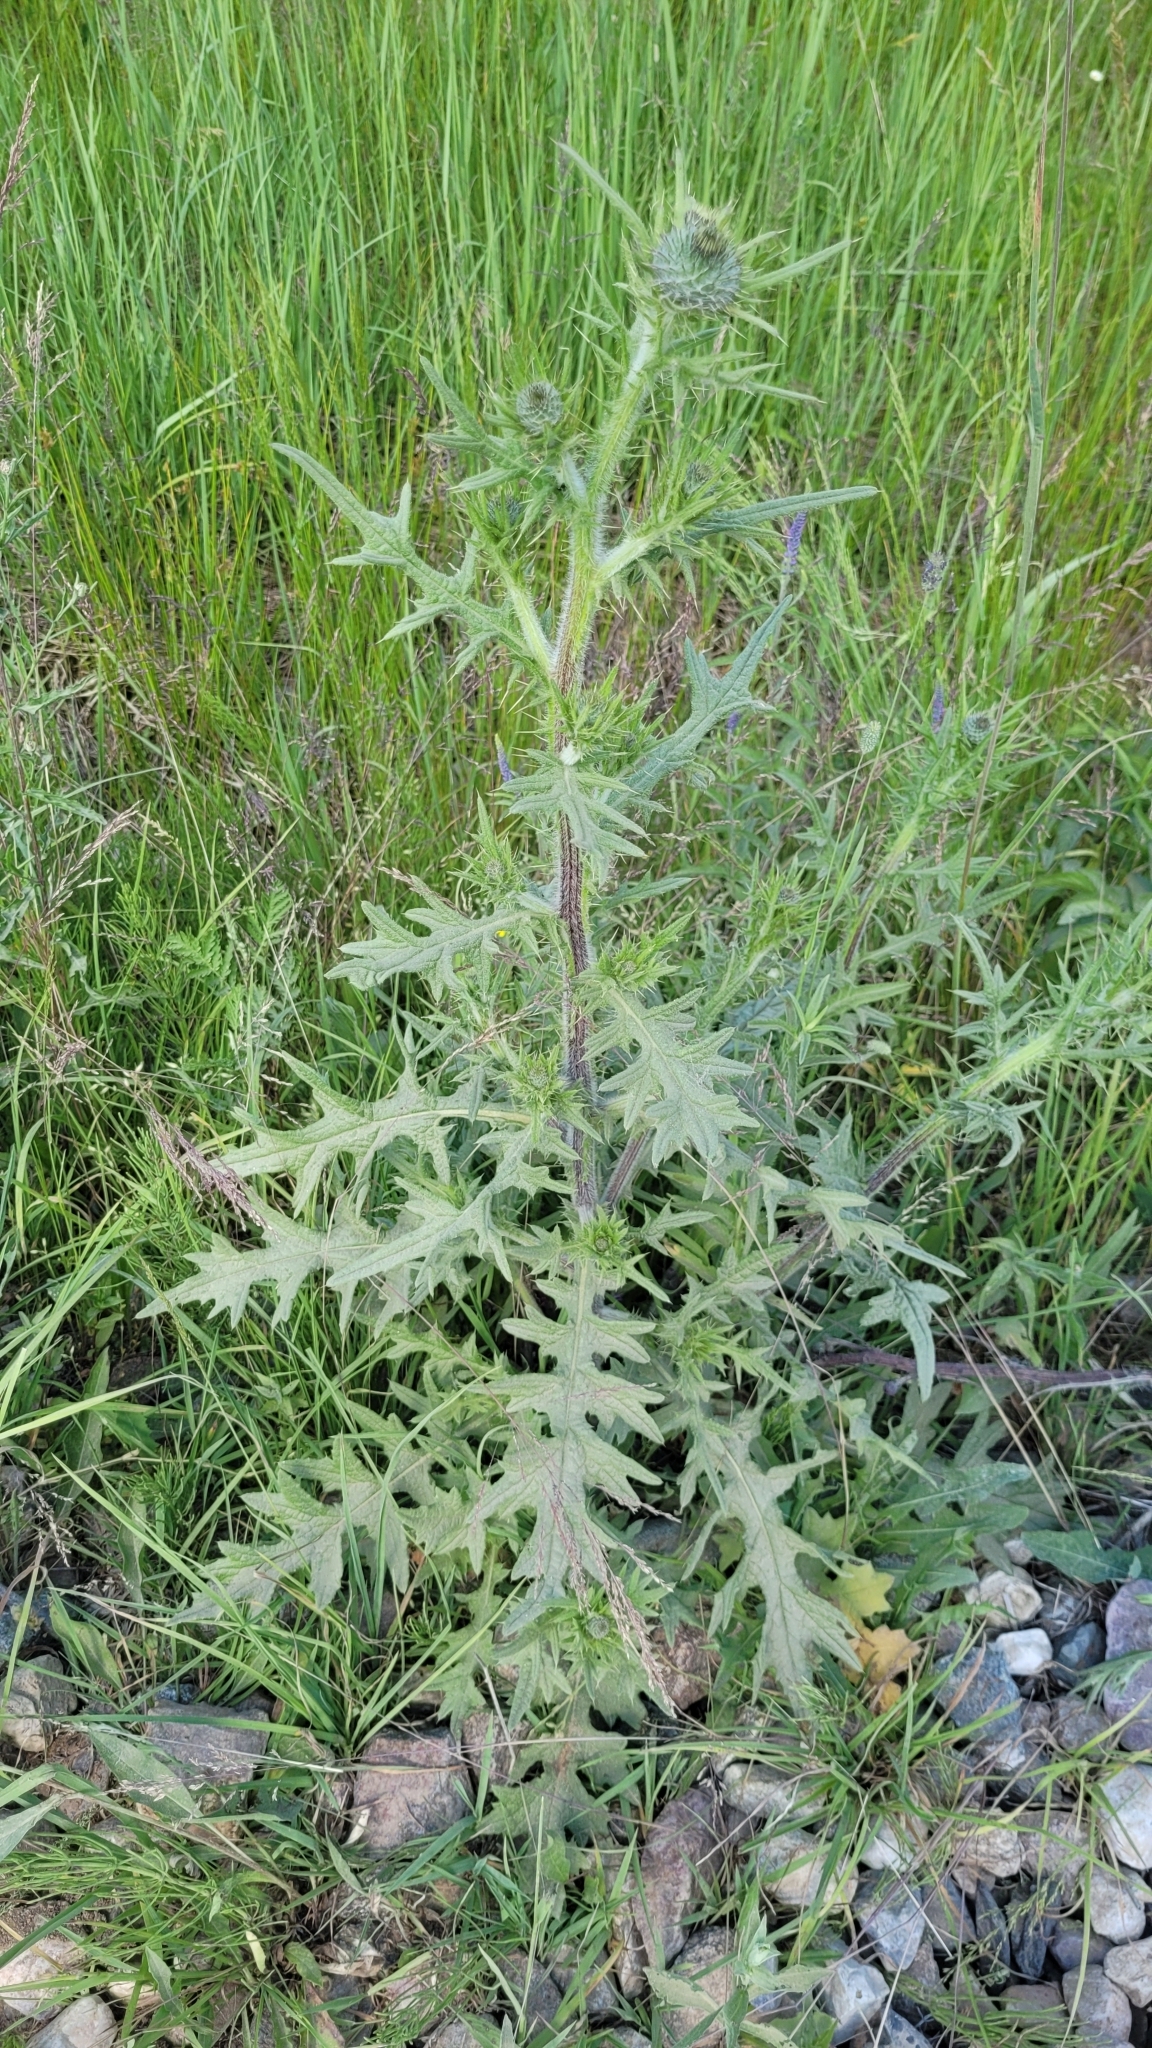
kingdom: Plantae
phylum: Tracheophyta
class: Magnoliopsida
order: Asterales
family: Asteraceae
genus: Cirsium
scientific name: Cirsium vulgare
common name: Bull thistle
